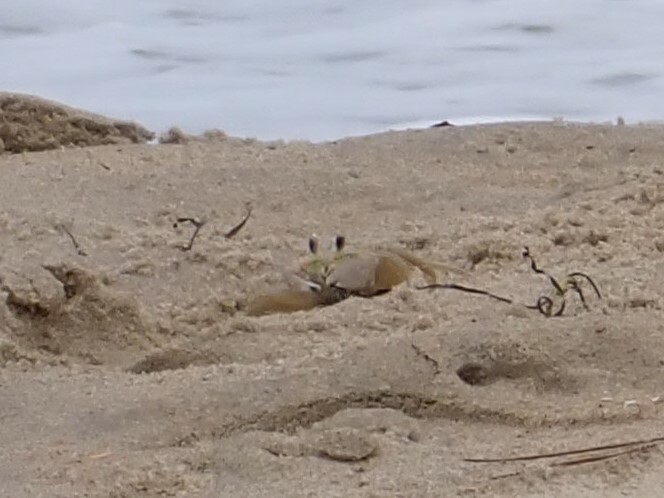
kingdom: Animalia
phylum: Arthropoda
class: Malacostraca
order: Decapoda
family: Ocypodidae
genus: Ocypode
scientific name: Ocypode quadrata
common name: Ghost crab
